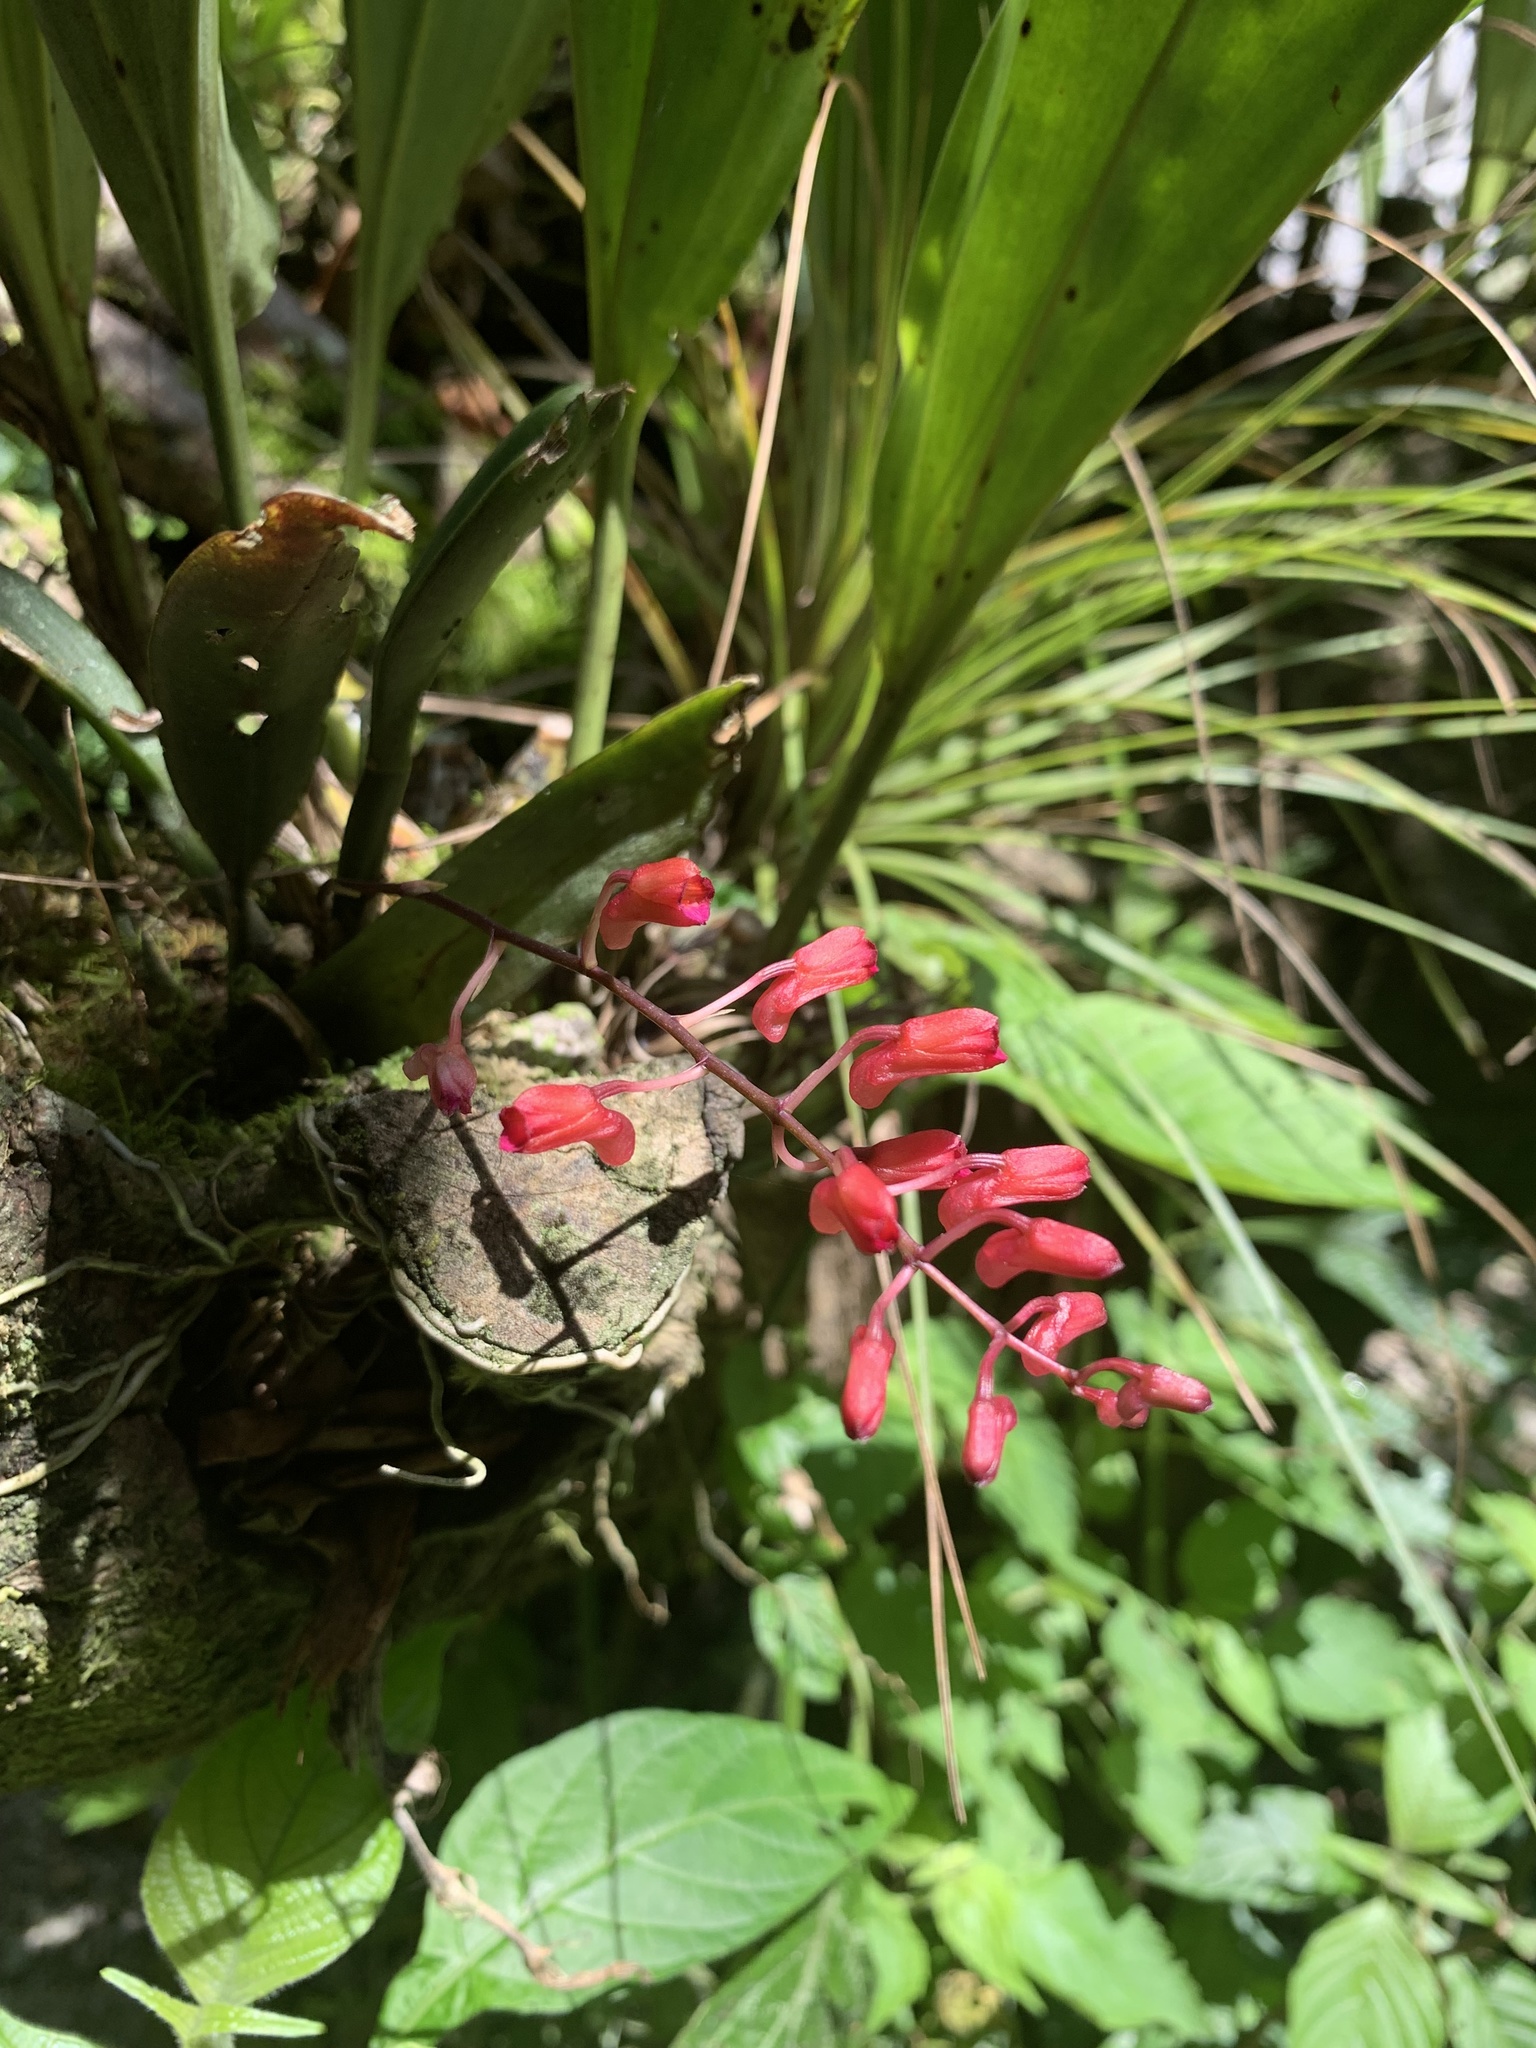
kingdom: Plantae
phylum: Tracheophyta
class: Liliopsida
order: Asparagales
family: Orchidaceae
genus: Comparettia
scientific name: Comparettia rubriflora
